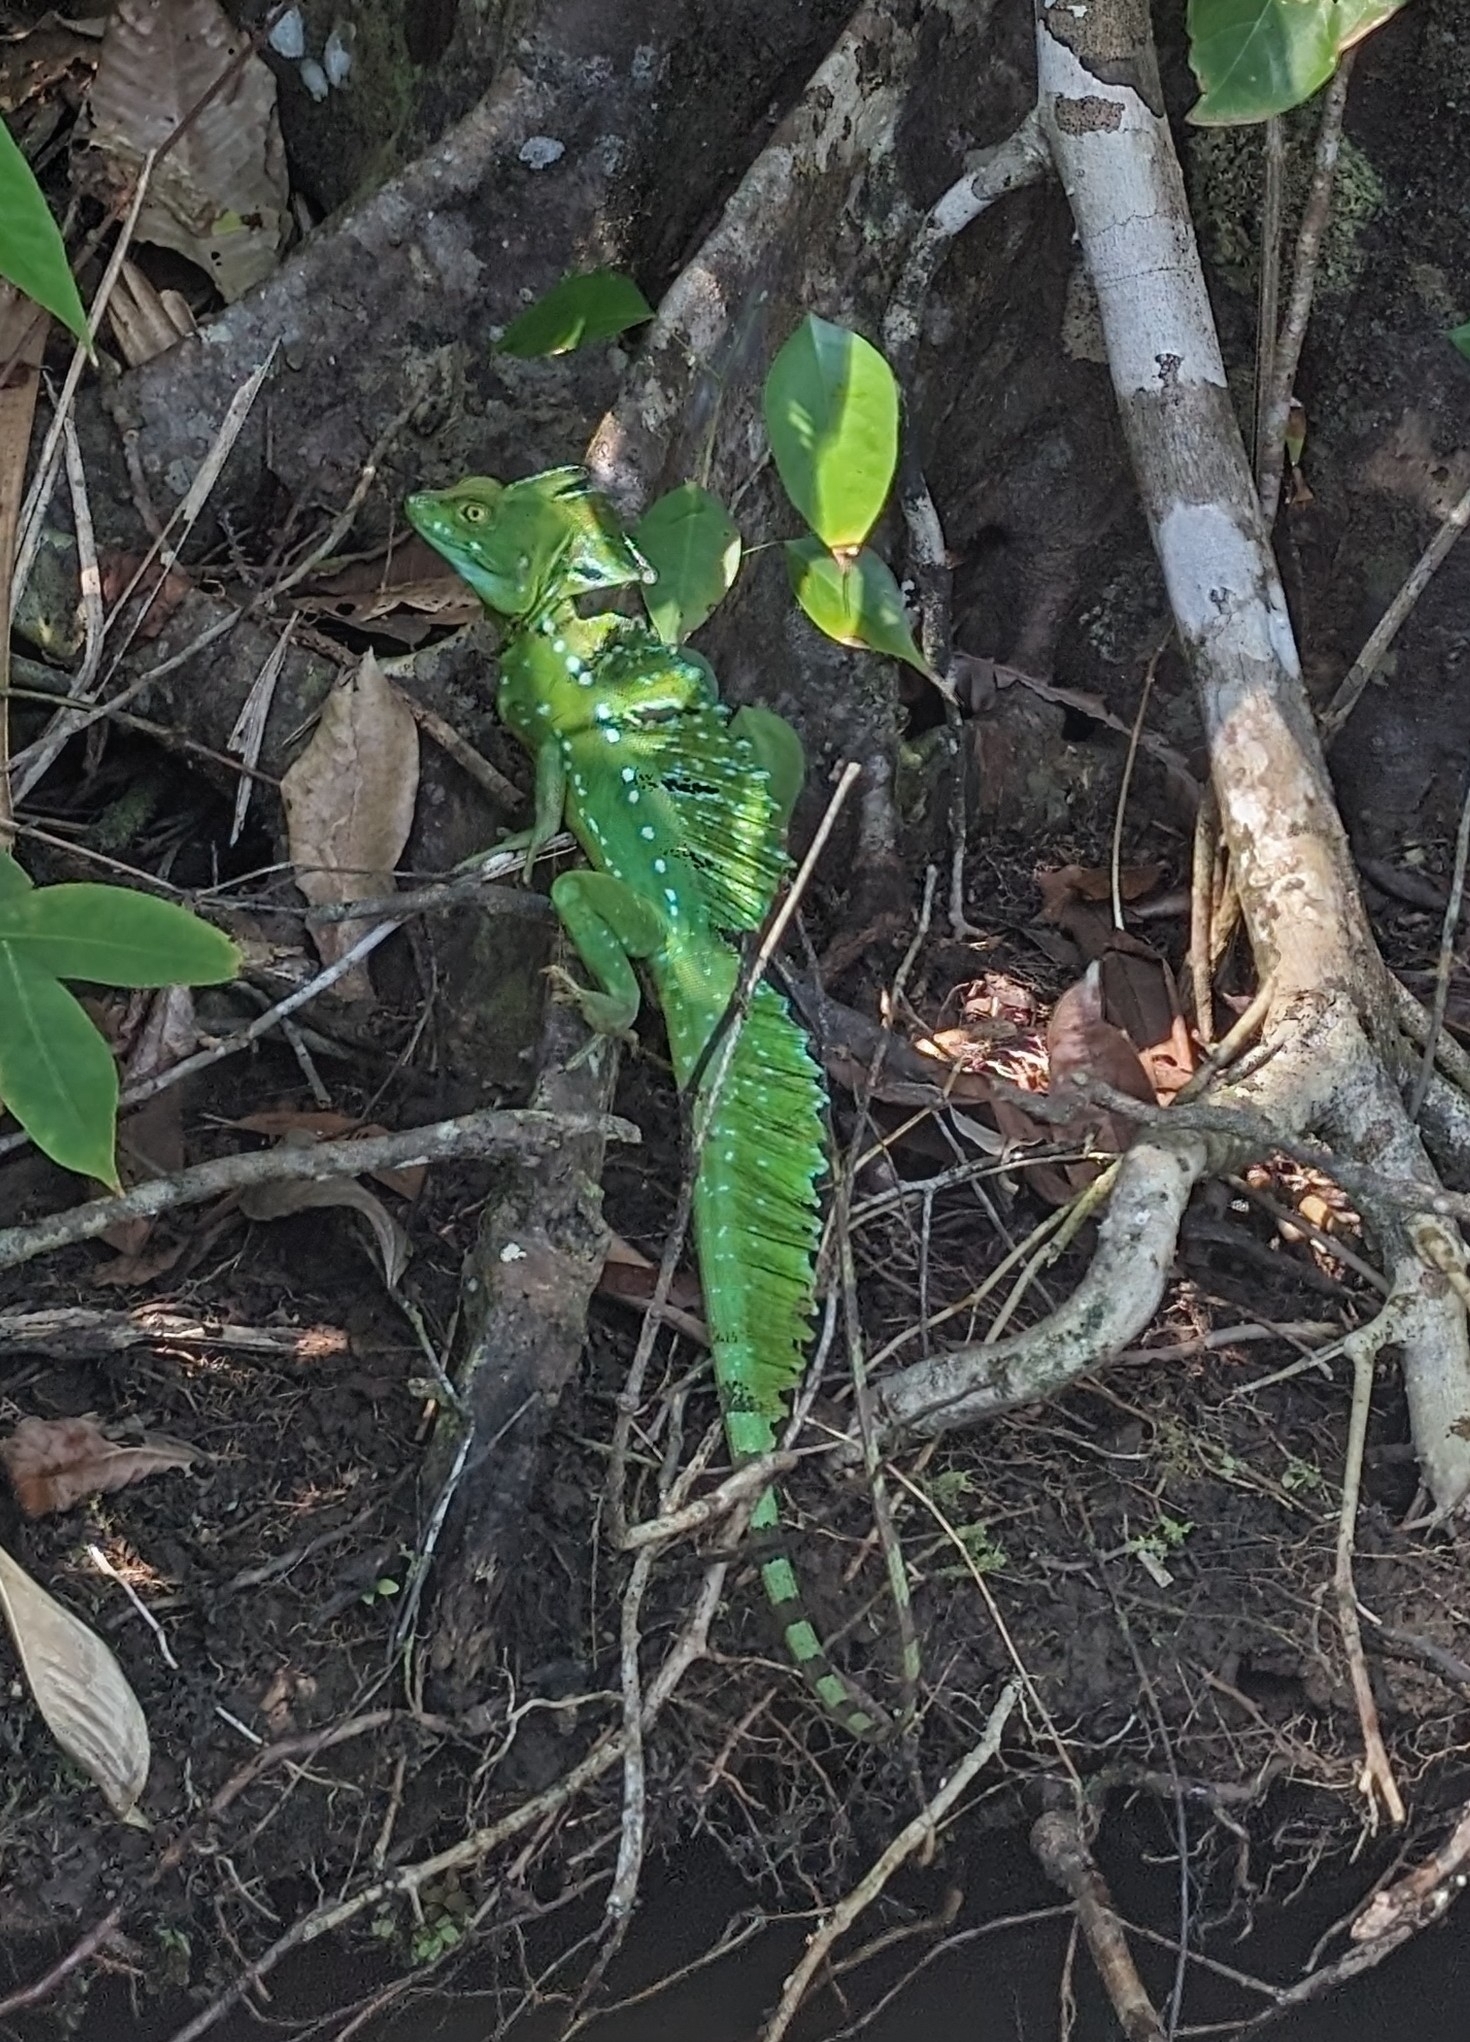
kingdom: Animalia
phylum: Chordata
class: Squamata
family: Corytophanidae
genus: Basiliscus
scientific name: Basiliscus plumifrons
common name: Green basilisk
